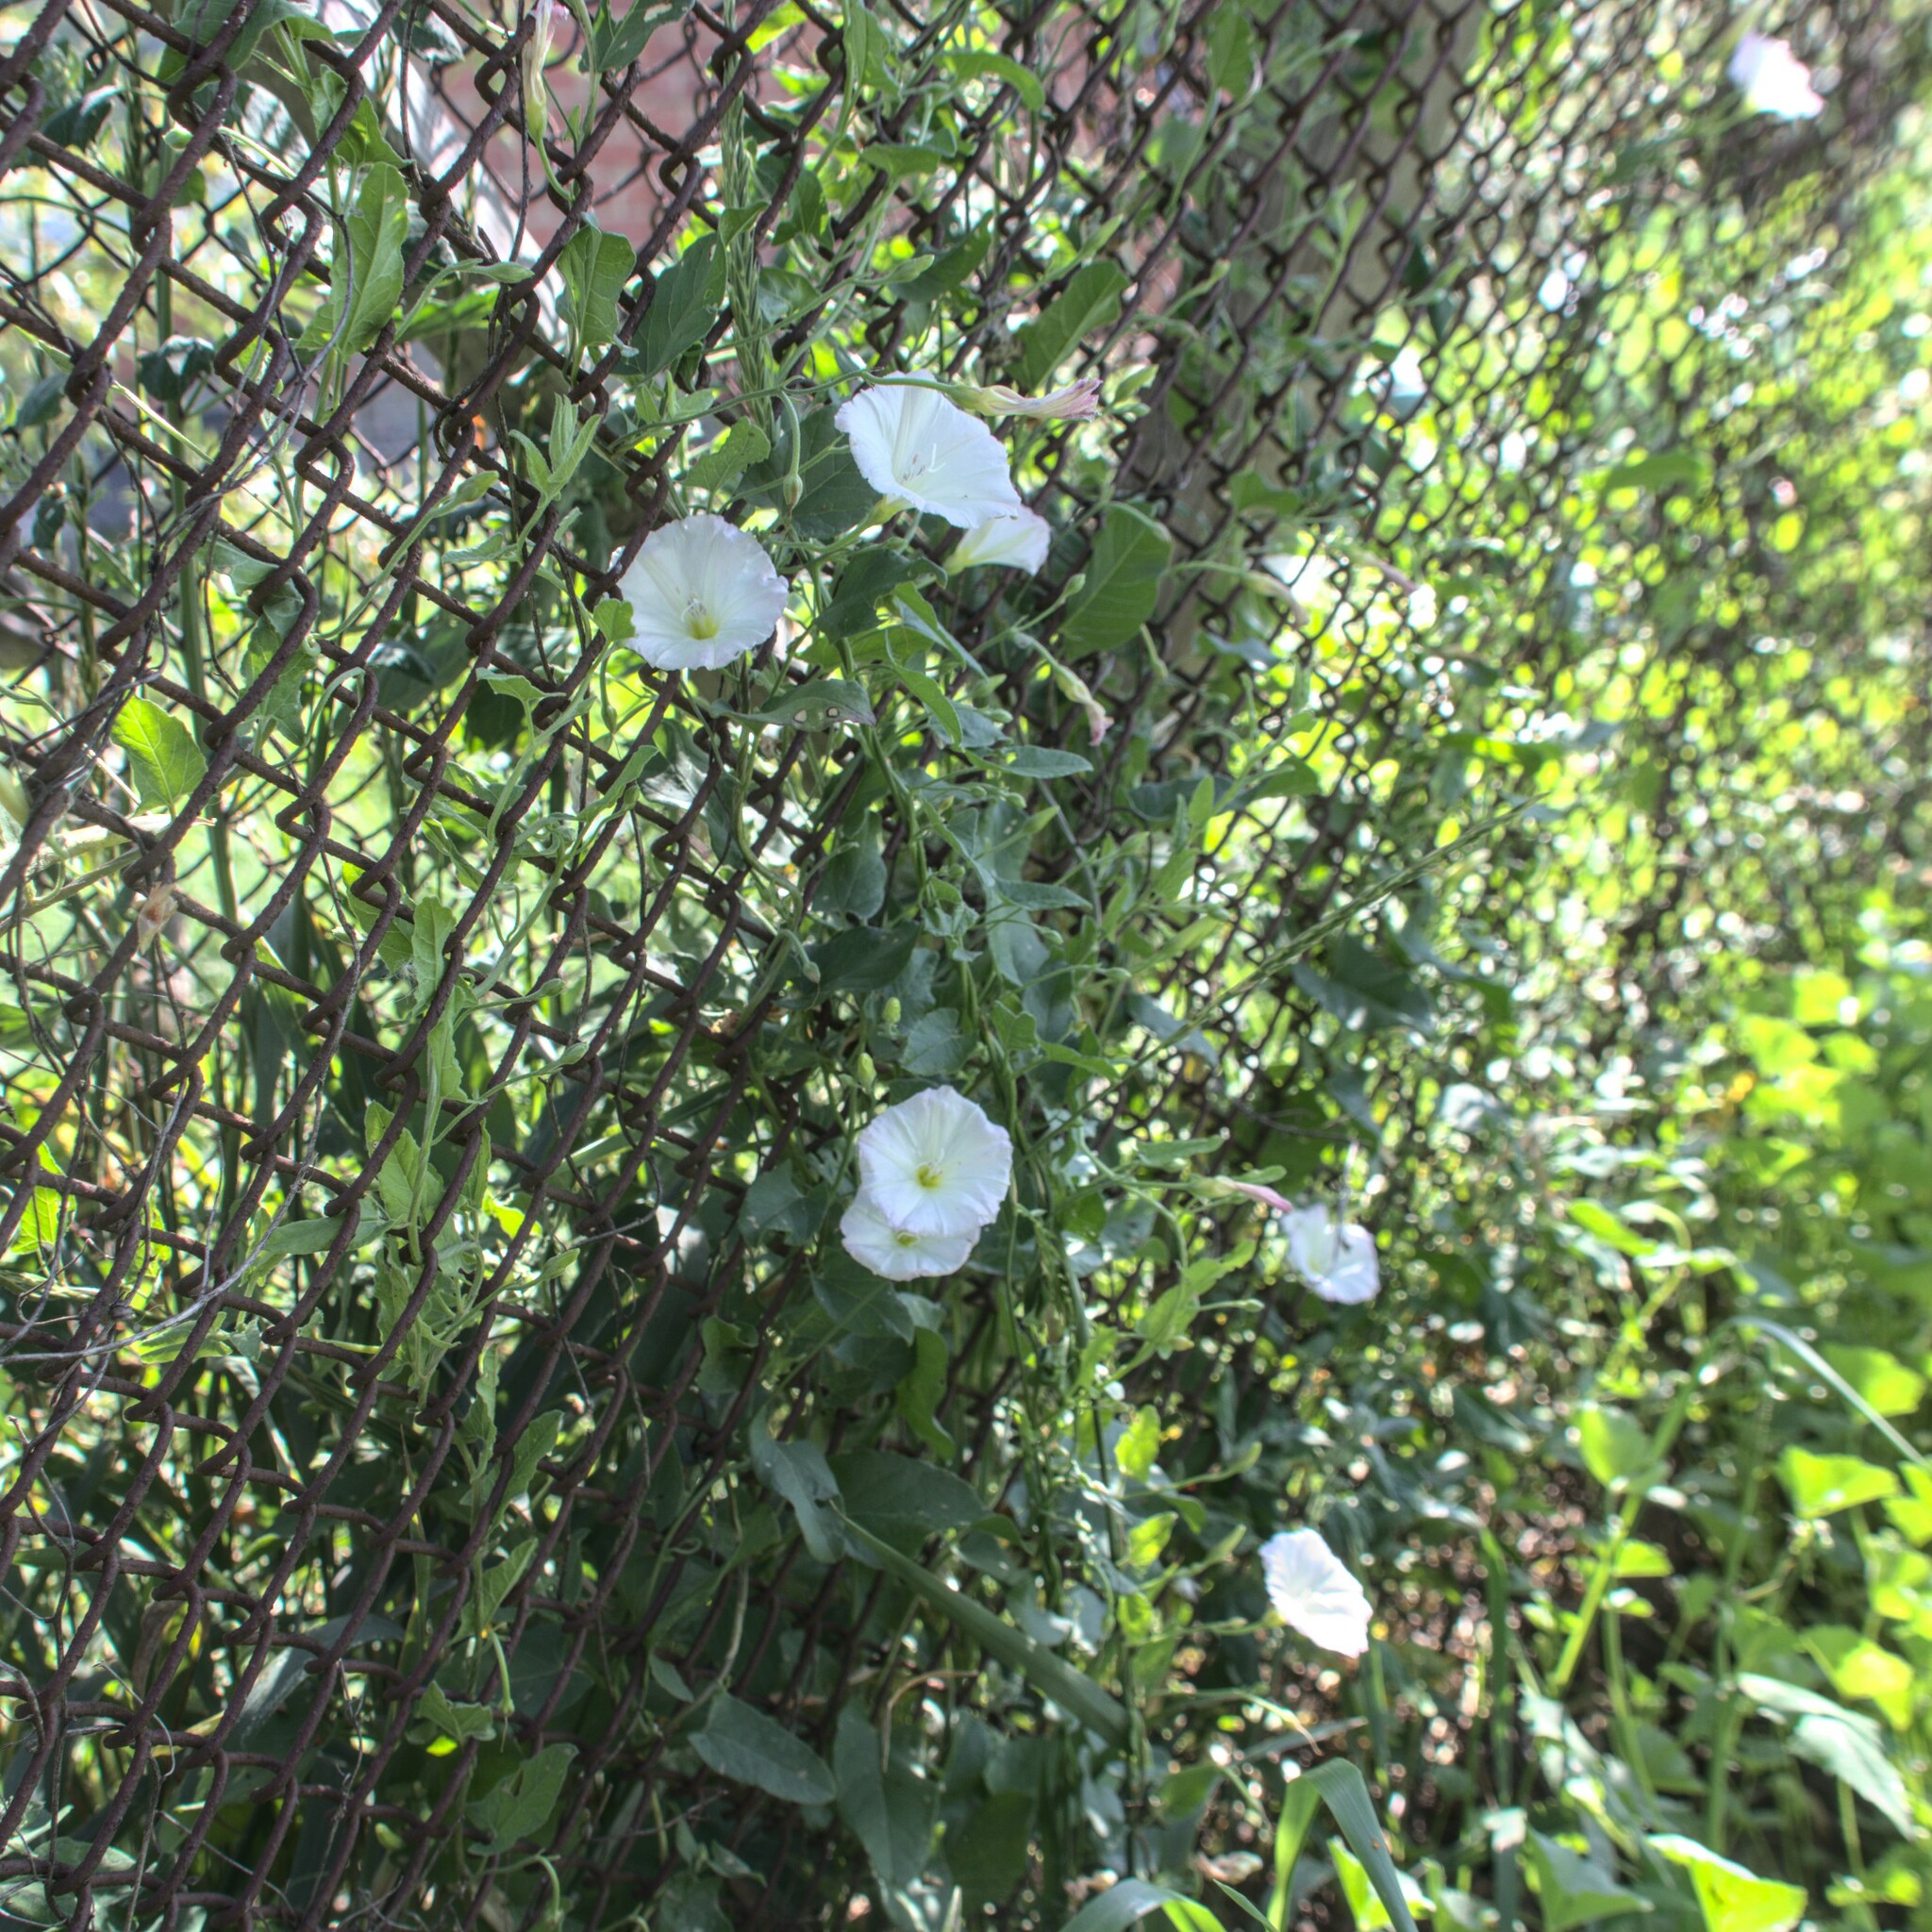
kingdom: Plantae
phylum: Tracheophyta
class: Magnoliopsida
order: Solanales
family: Convolvulaceae
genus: Convolvulus
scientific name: Convolvulus arvensis
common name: Field bindweed
